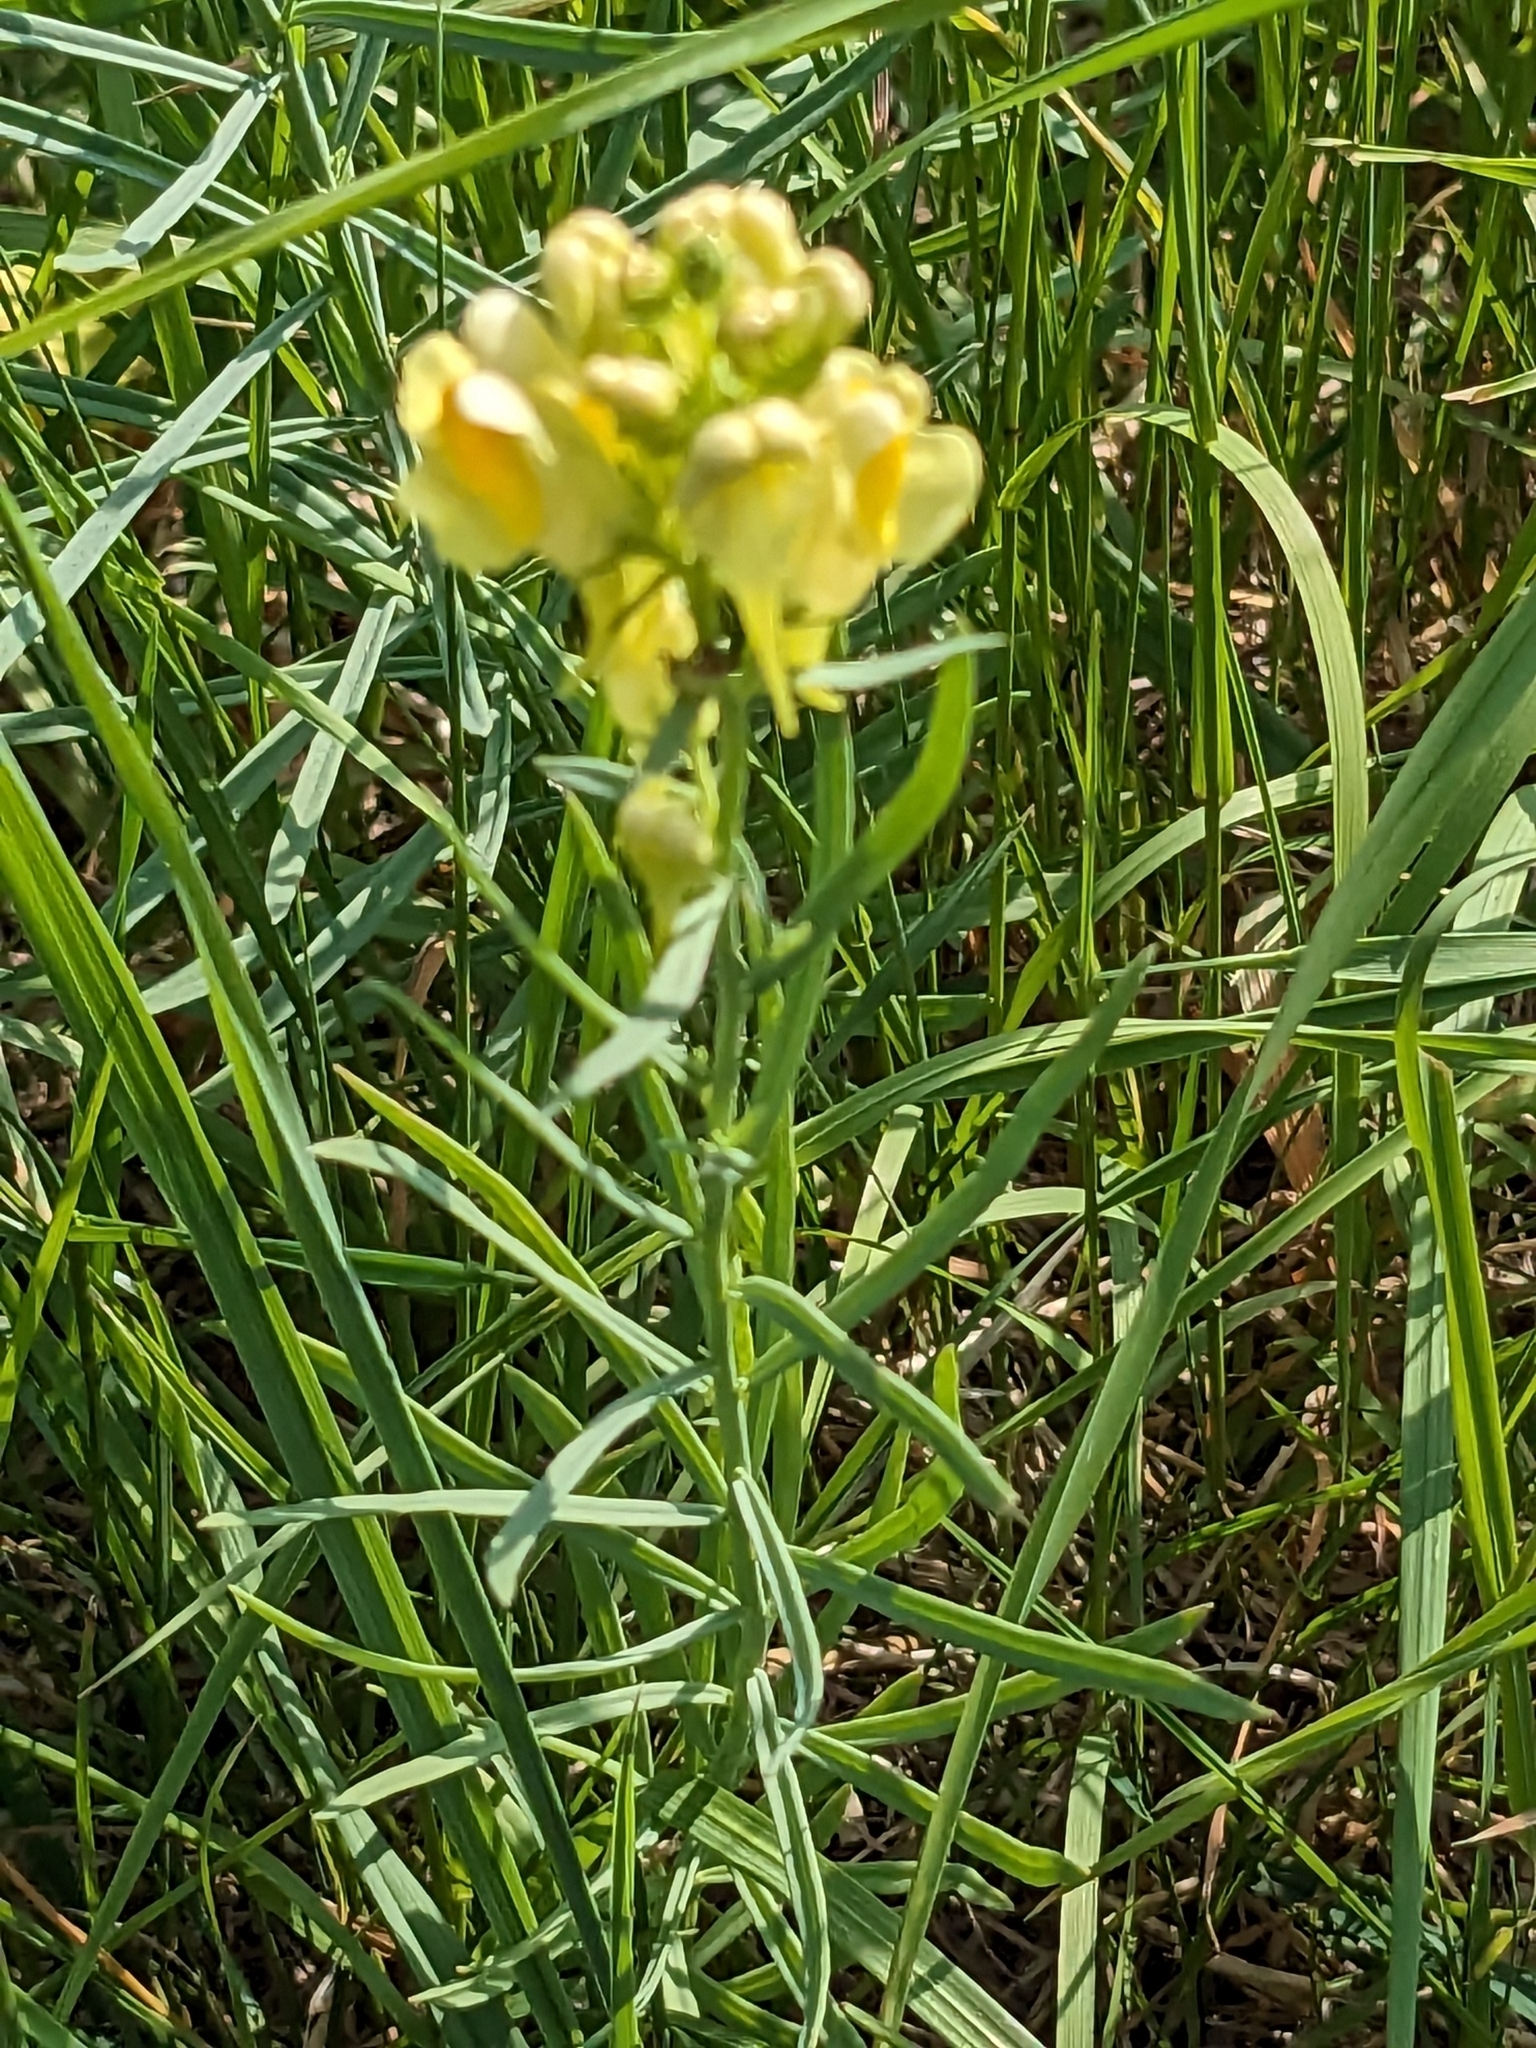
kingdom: Plantae
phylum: Tracheophyta
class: Magnoliopsida
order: Lamiales
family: Plantaginaceae
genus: Linaria
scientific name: Linaria vulgaris
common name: Butter and eggs
